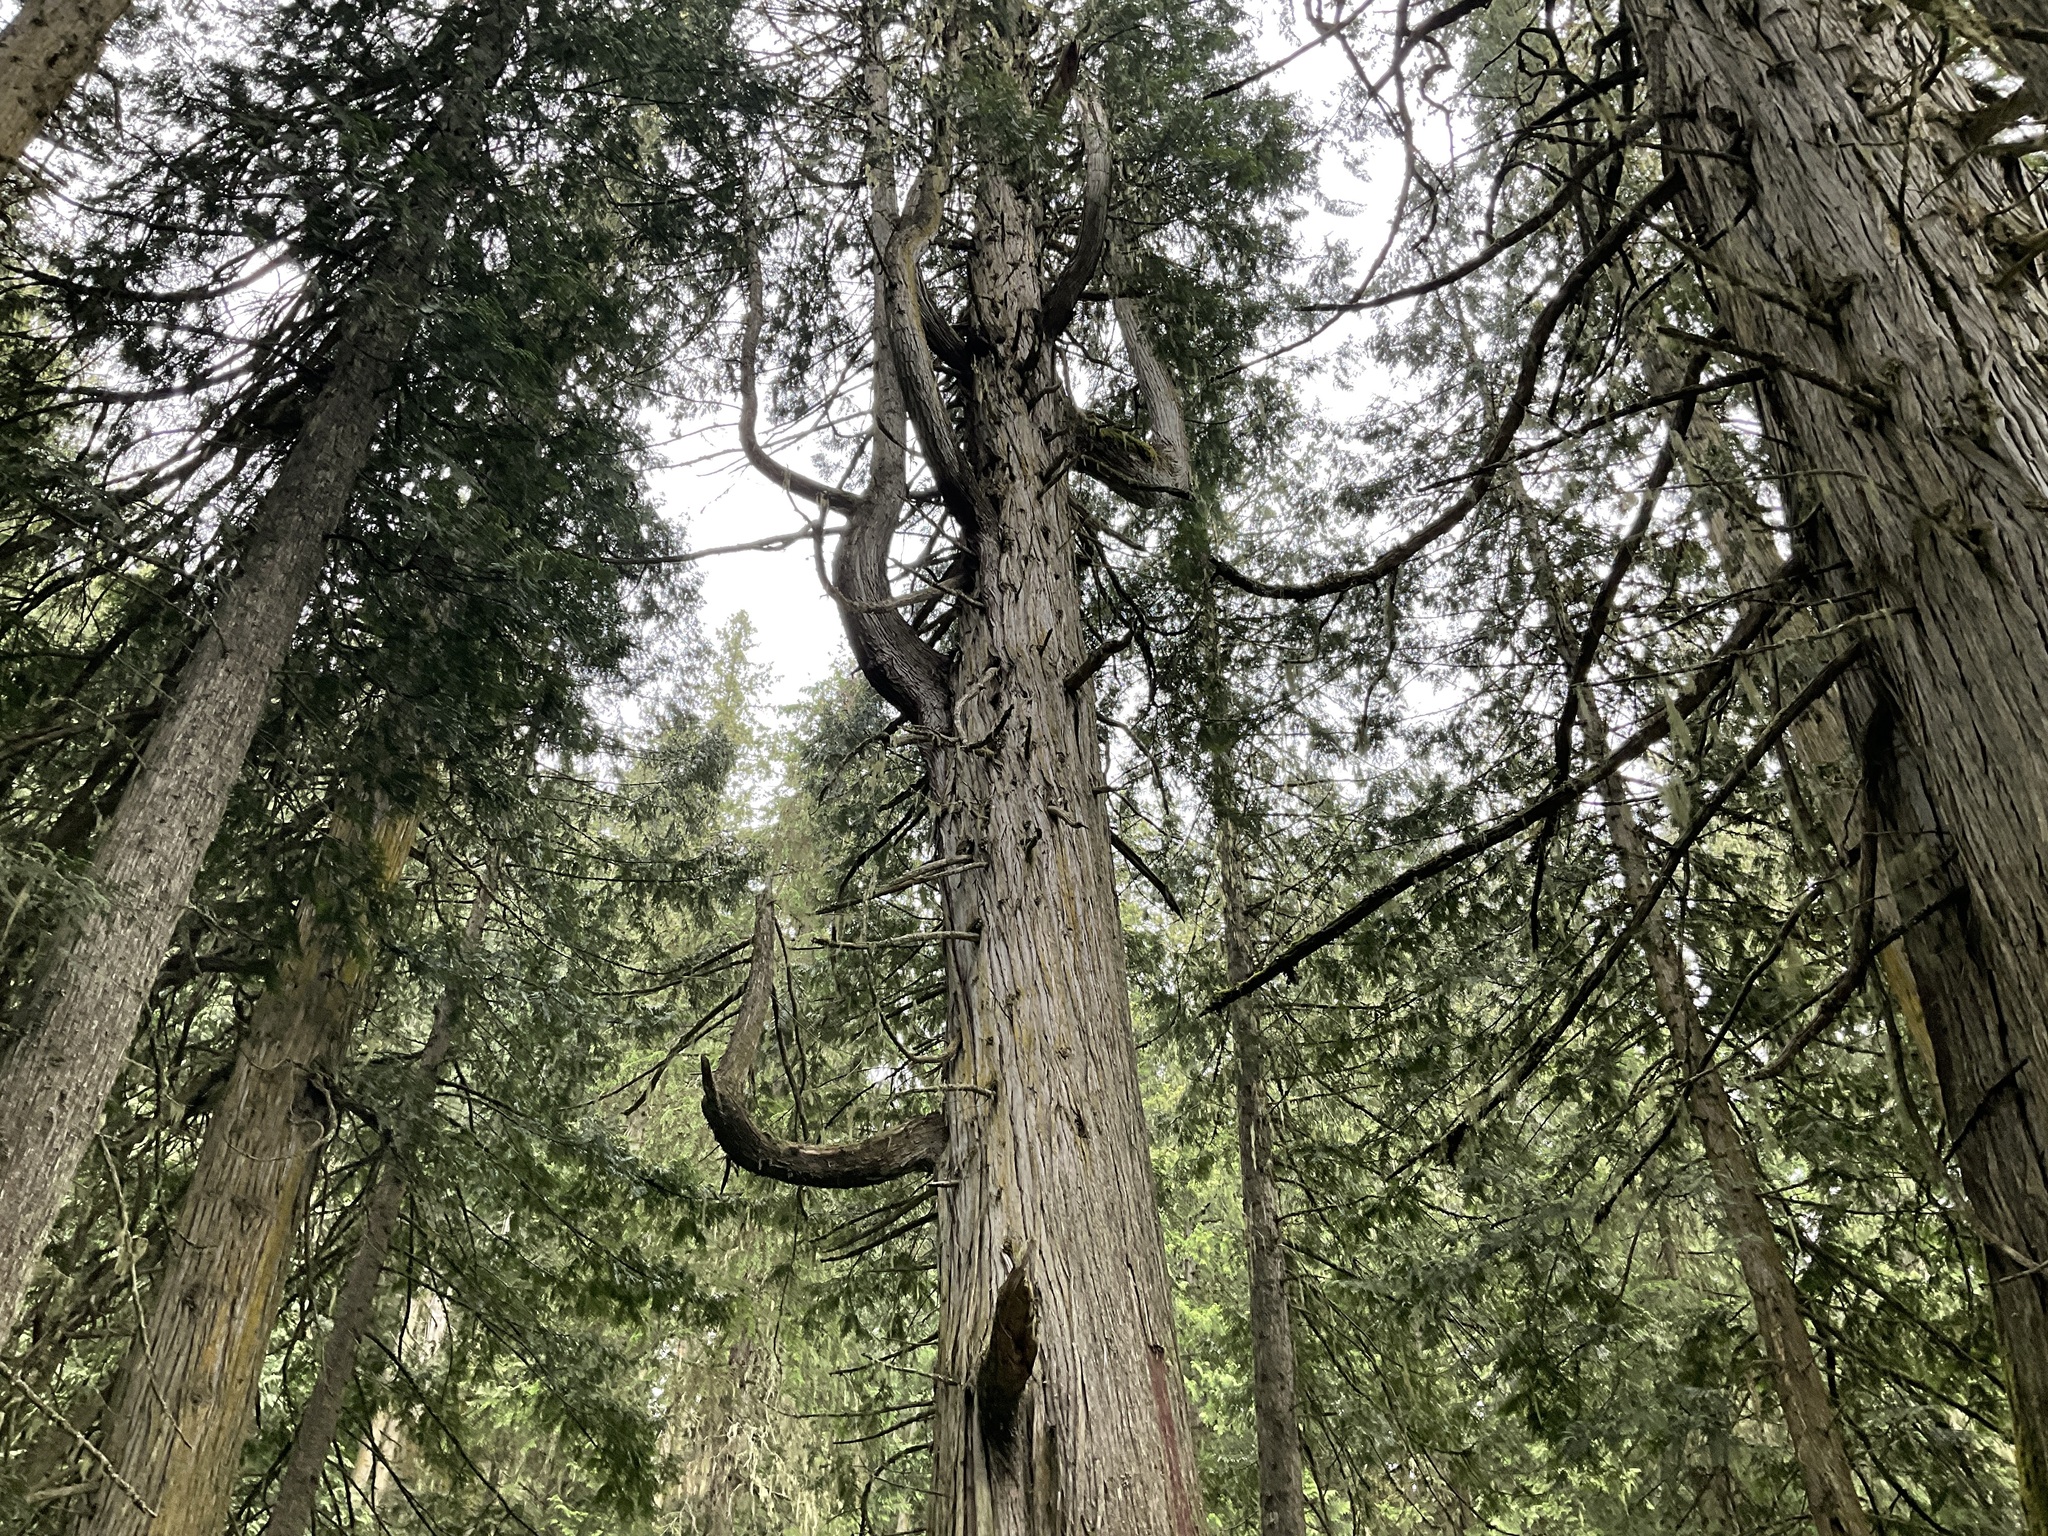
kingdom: Plantae
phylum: Tracheophyta
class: Pinopsida
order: Pinales
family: Cupressaceae
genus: Thuja
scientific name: Thuja plicata
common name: Western red-cedar
